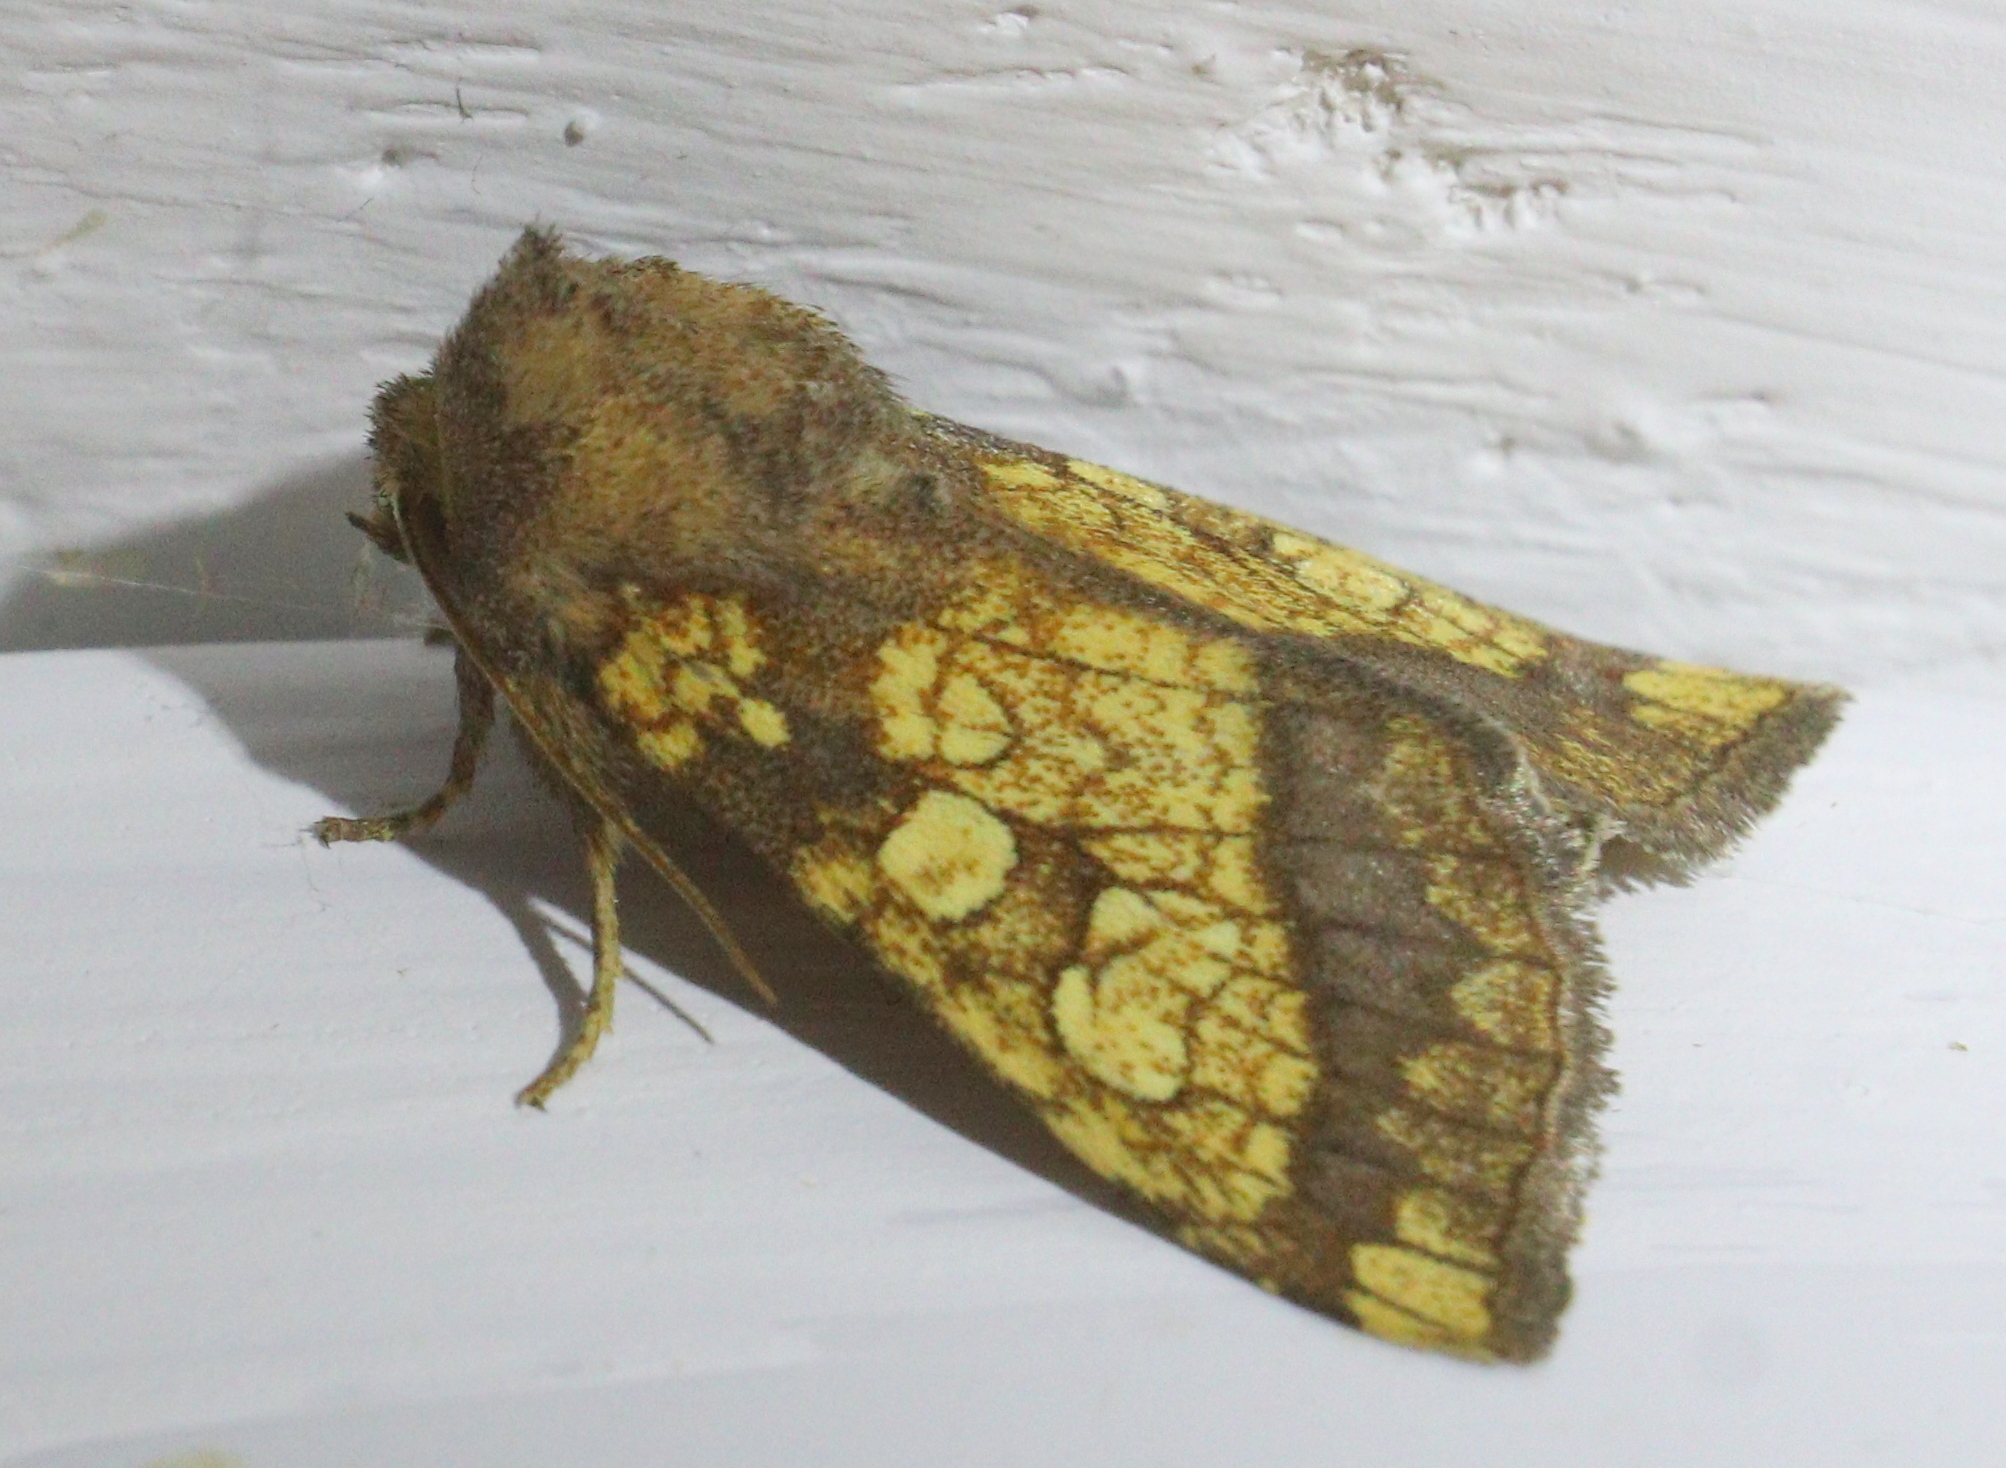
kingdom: Animalia
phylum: Arthropoda
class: Insecta
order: Lepidoptera
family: Noctuidae
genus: Gortyna
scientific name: Gortyna flavago
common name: Frosted orange
